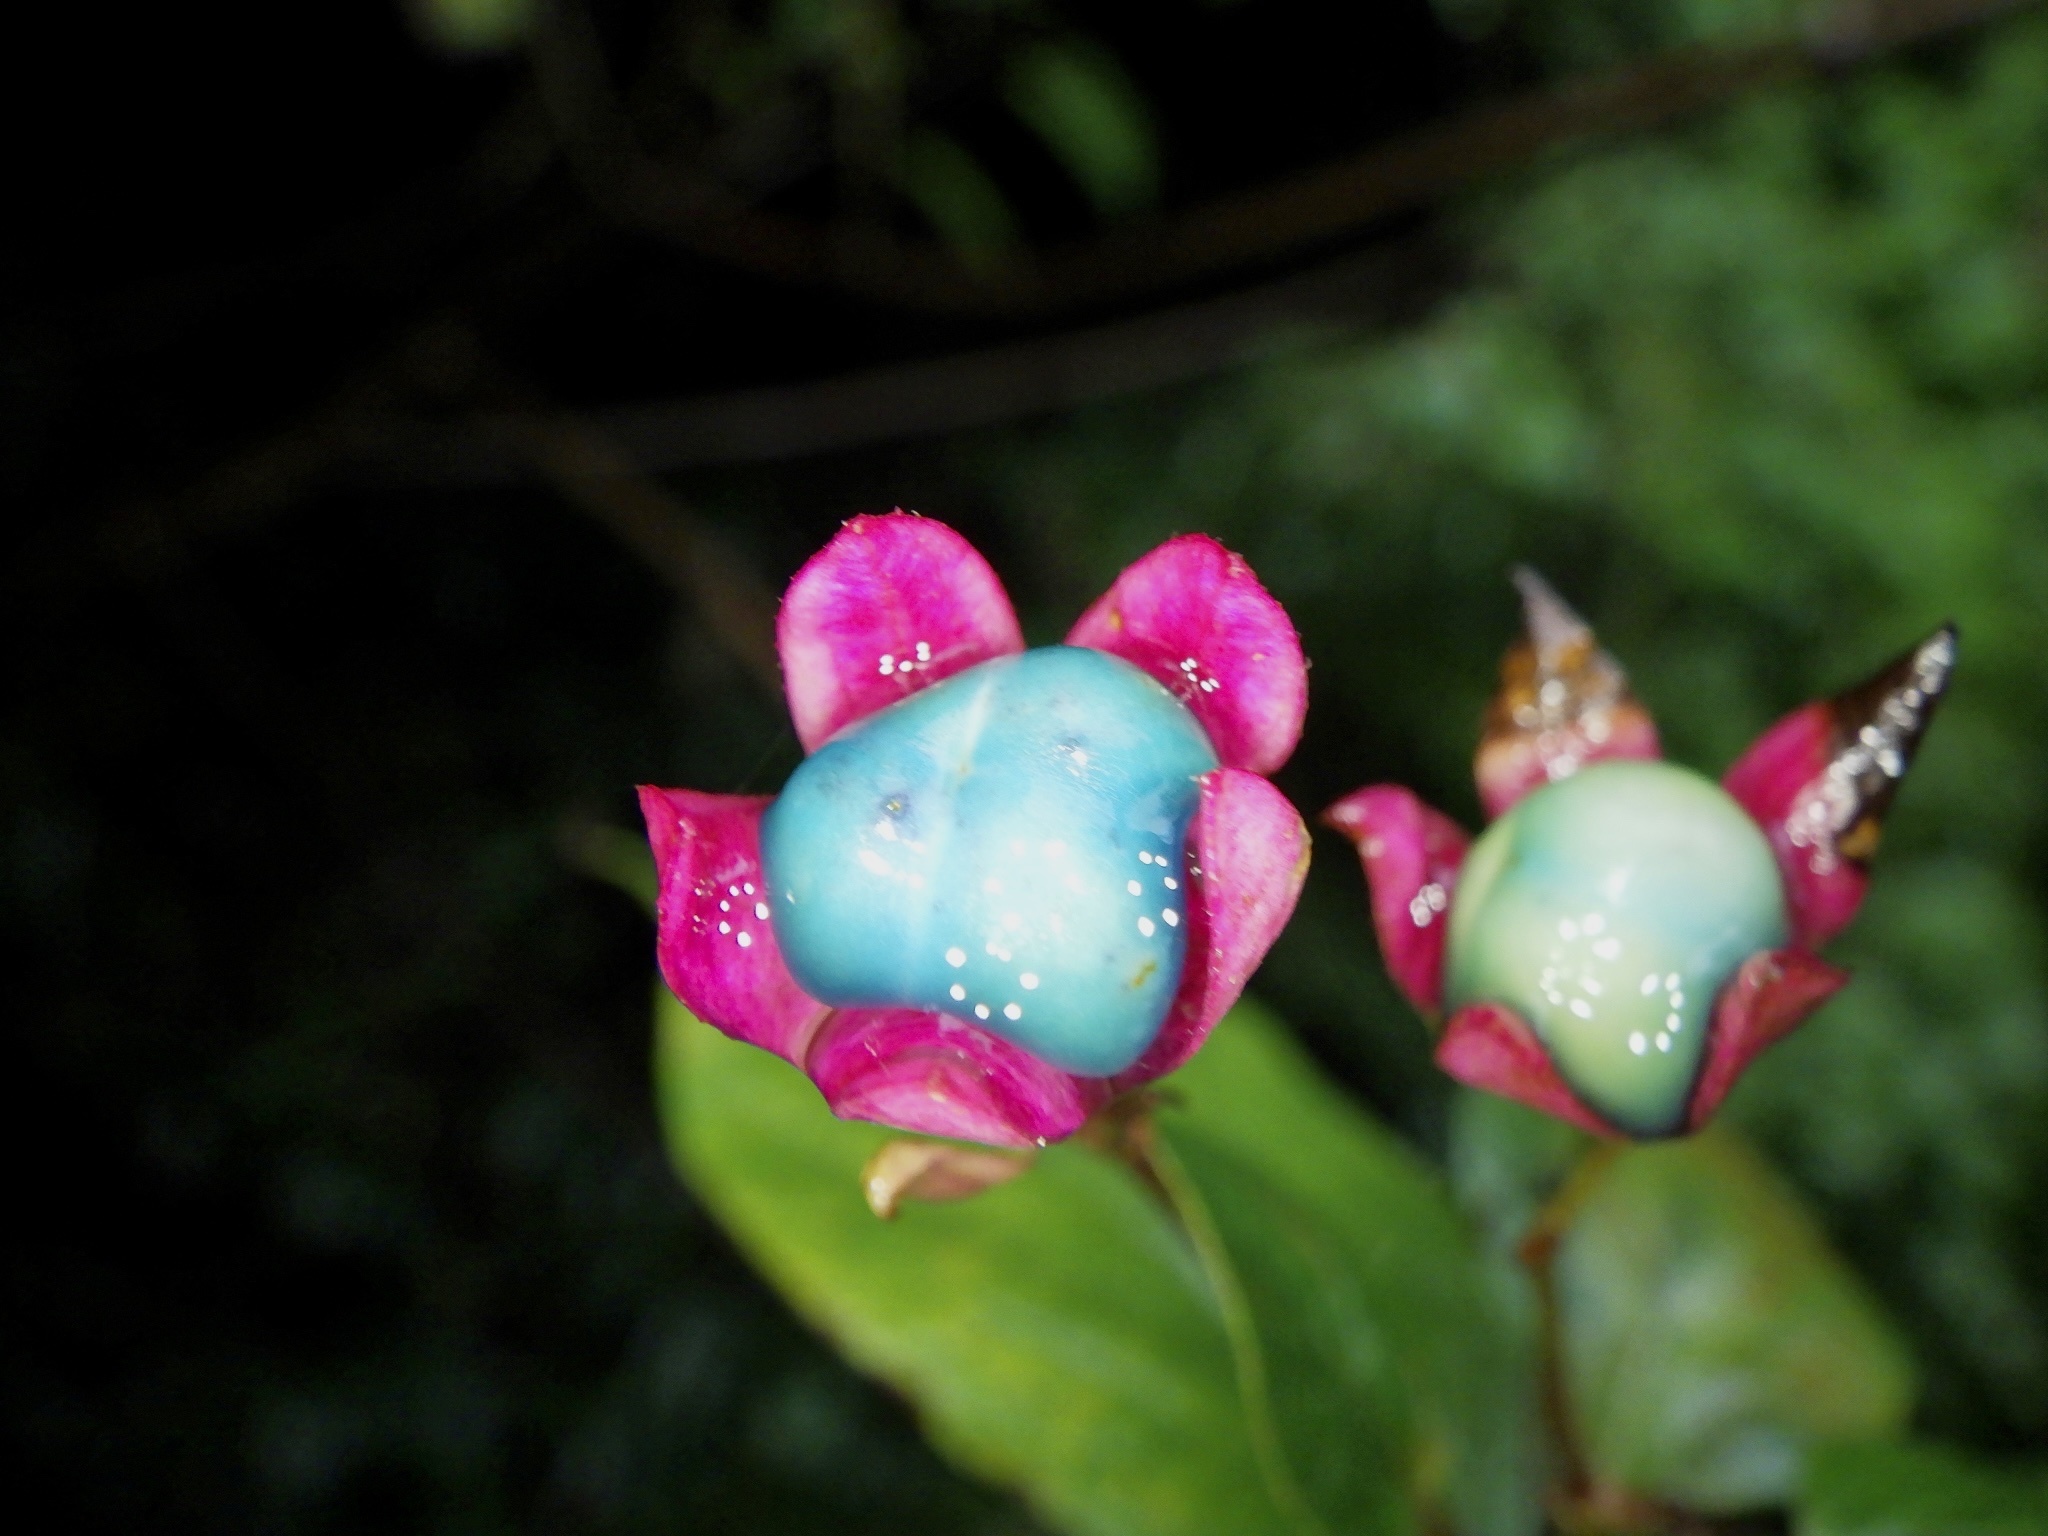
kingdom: Plantae
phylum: Tracheophyta
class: Magnoliopsida
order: Lamiales
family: Lamiaceae
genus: Clerodendrum
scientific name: Clerodendrum trichotomum
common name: Harlequin glorybower
